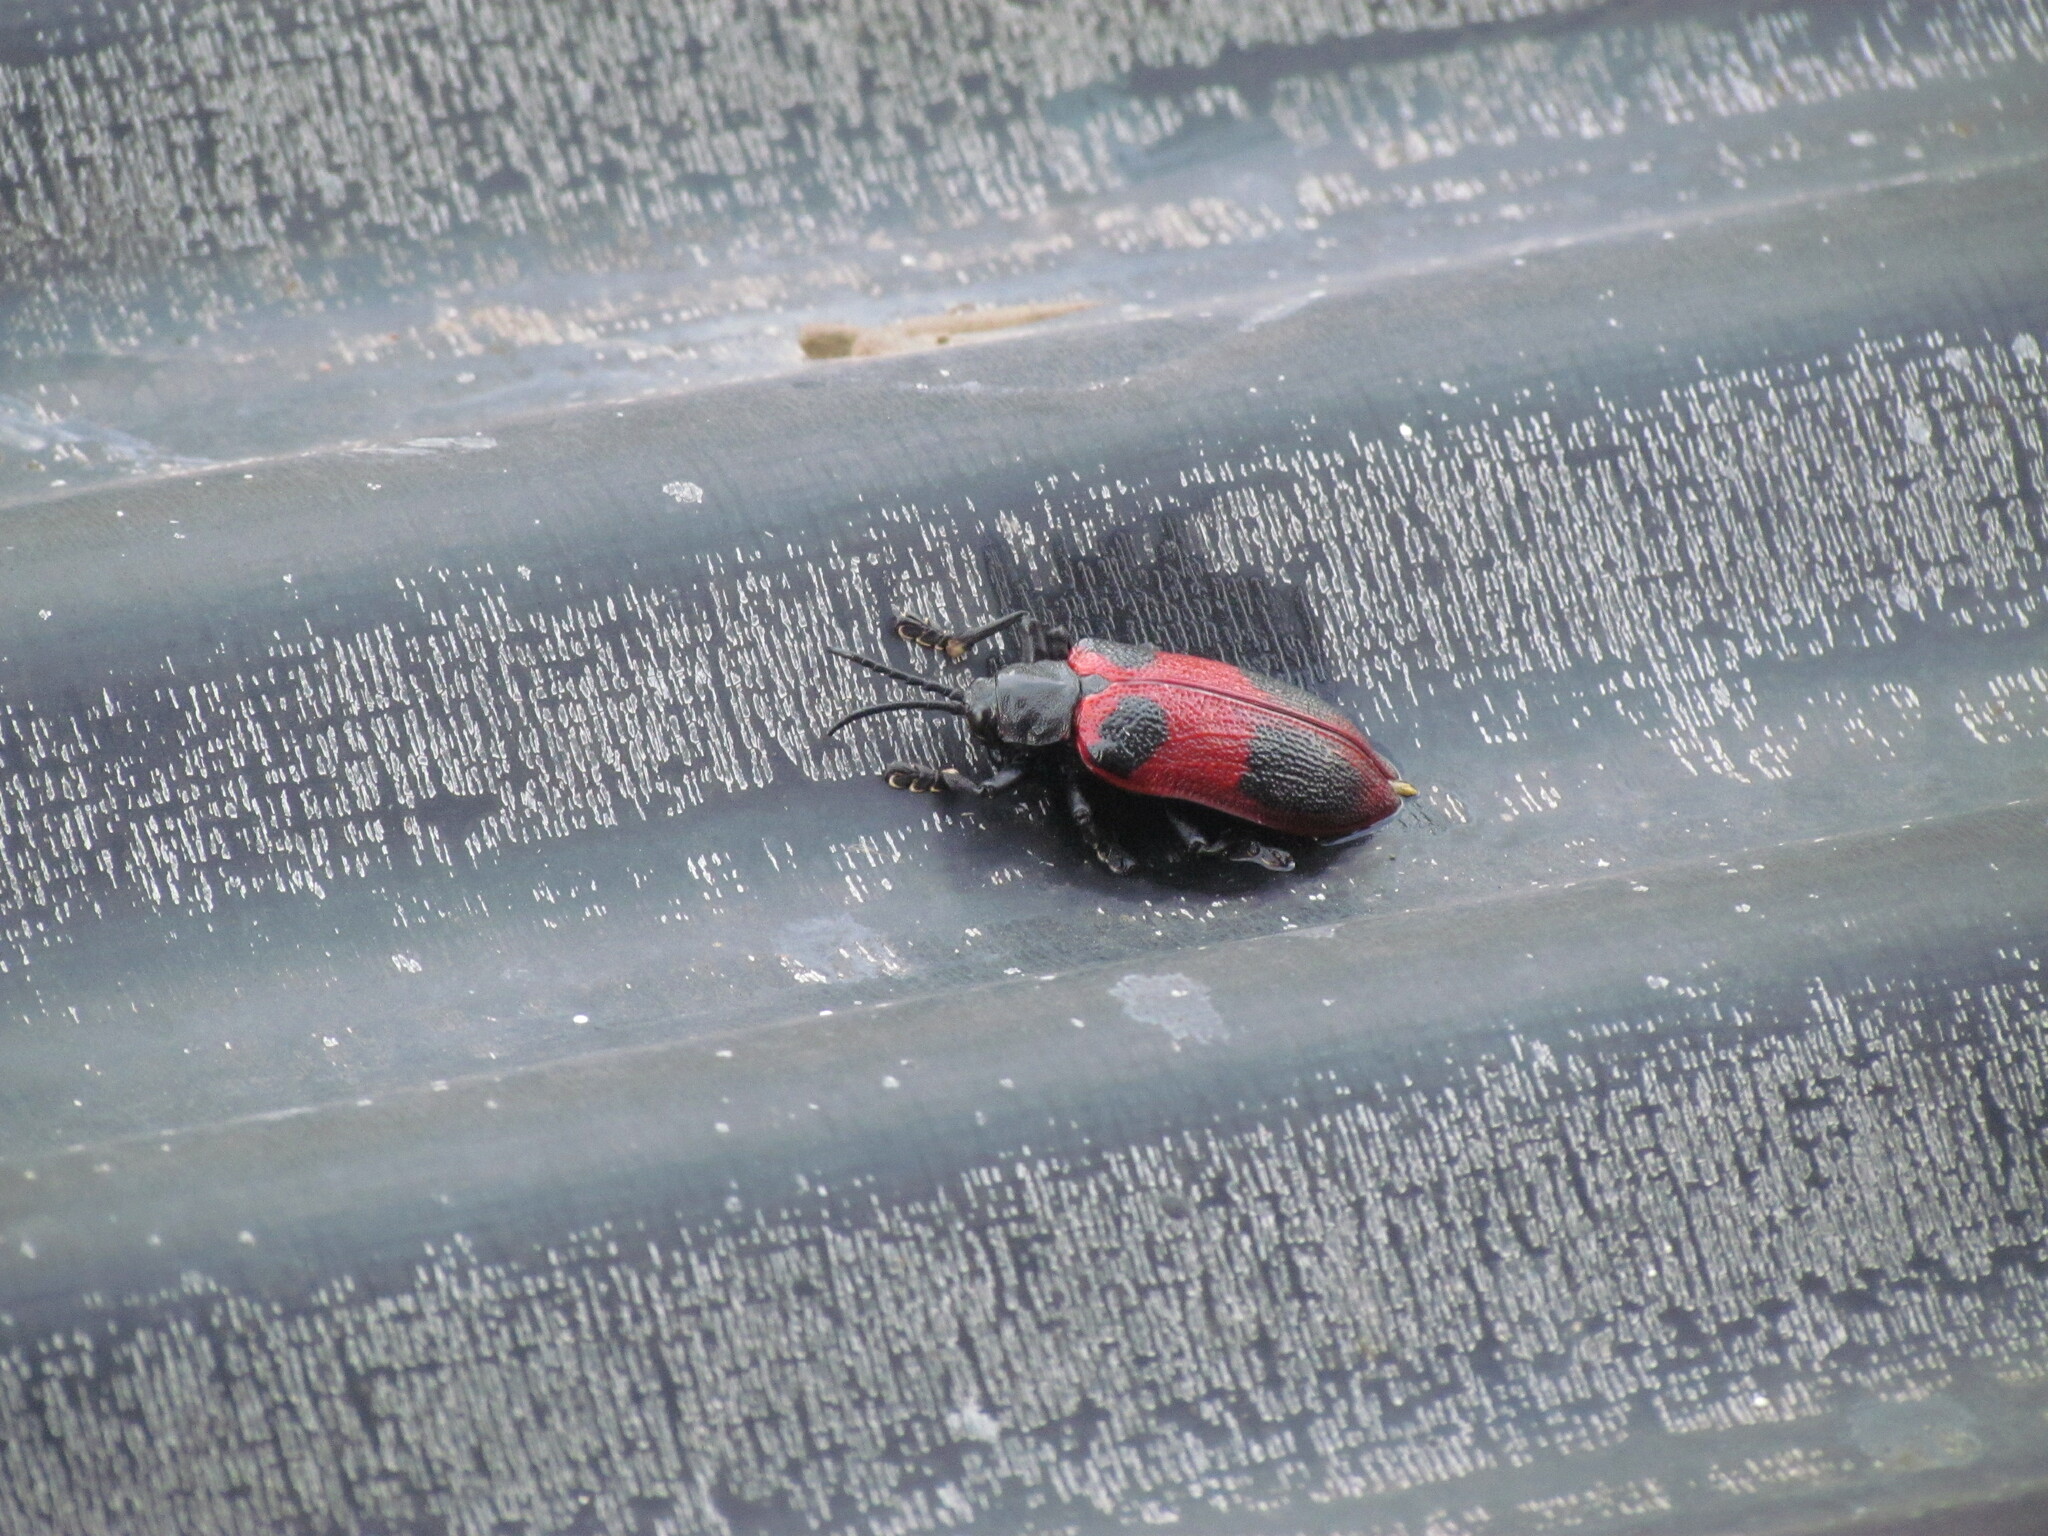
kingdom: Animalia
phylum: Arthropoda
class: Insecta
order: Coleoptera
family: Chrysomelidae
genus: Coraliomela
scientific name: Coraliomela quadrimaculata
